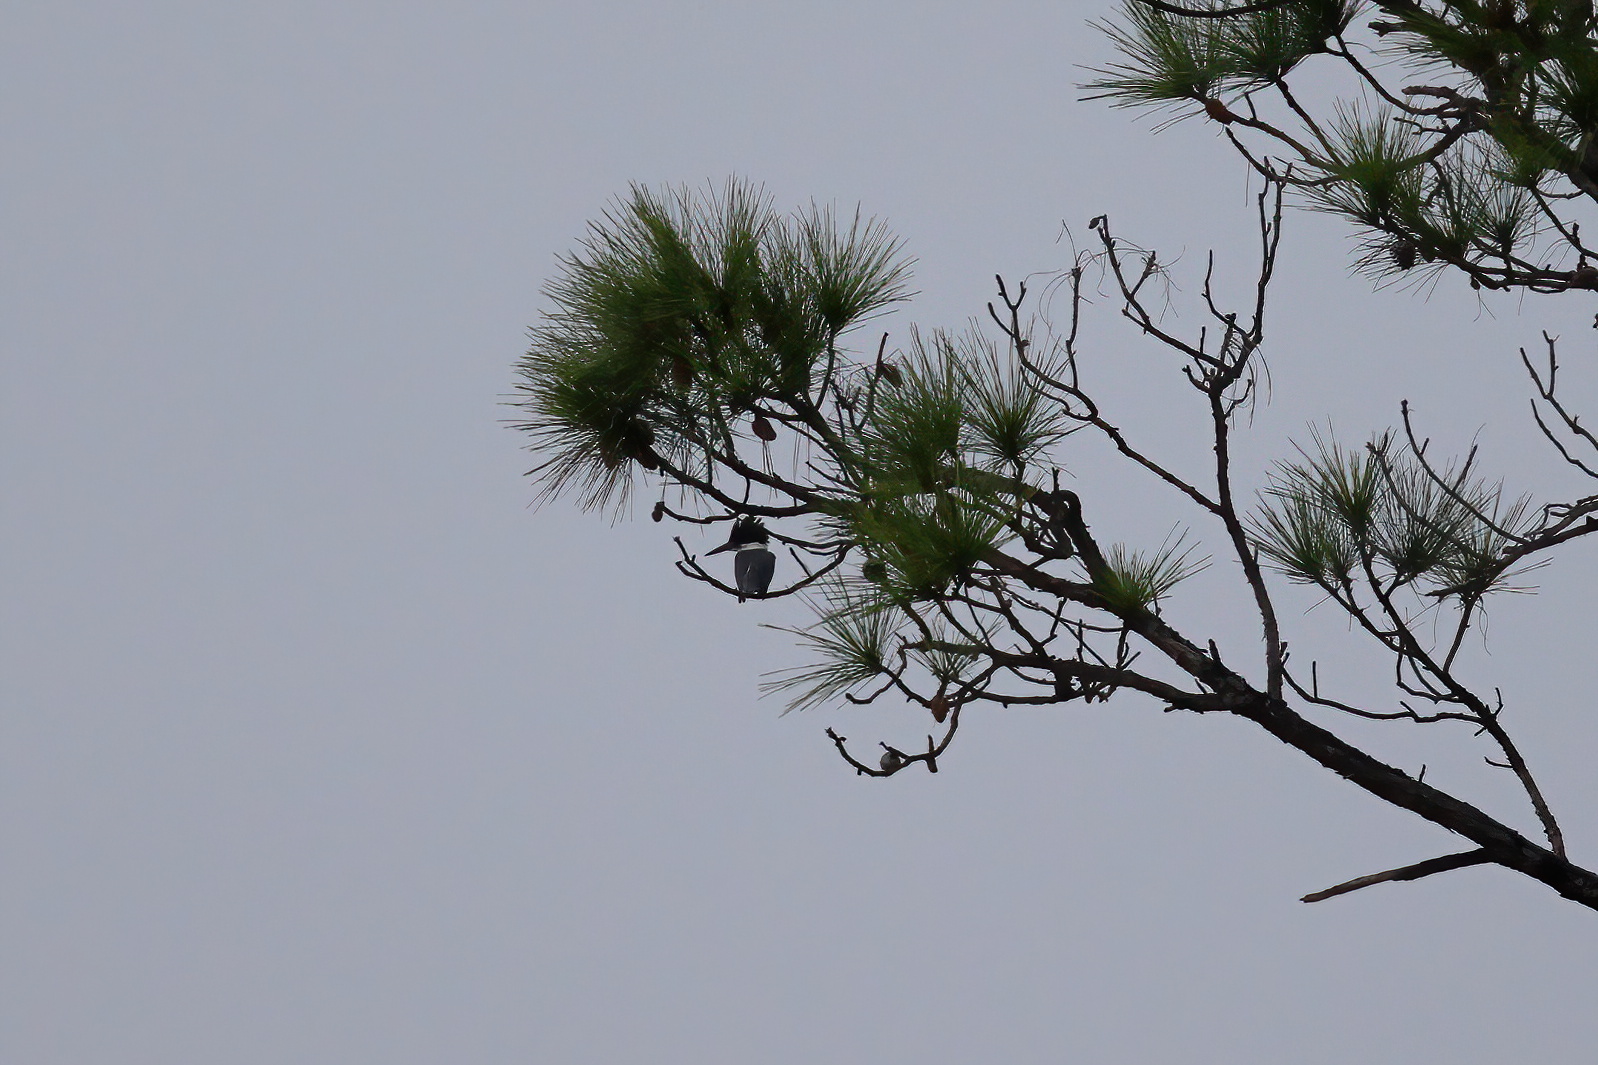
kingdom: Animalia
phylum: Chordata
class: Aves
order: Coraciiformes
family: Alcedinidae
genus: Megaceryle
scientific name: Megaceryle alcyon
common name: Belted kingfisher
